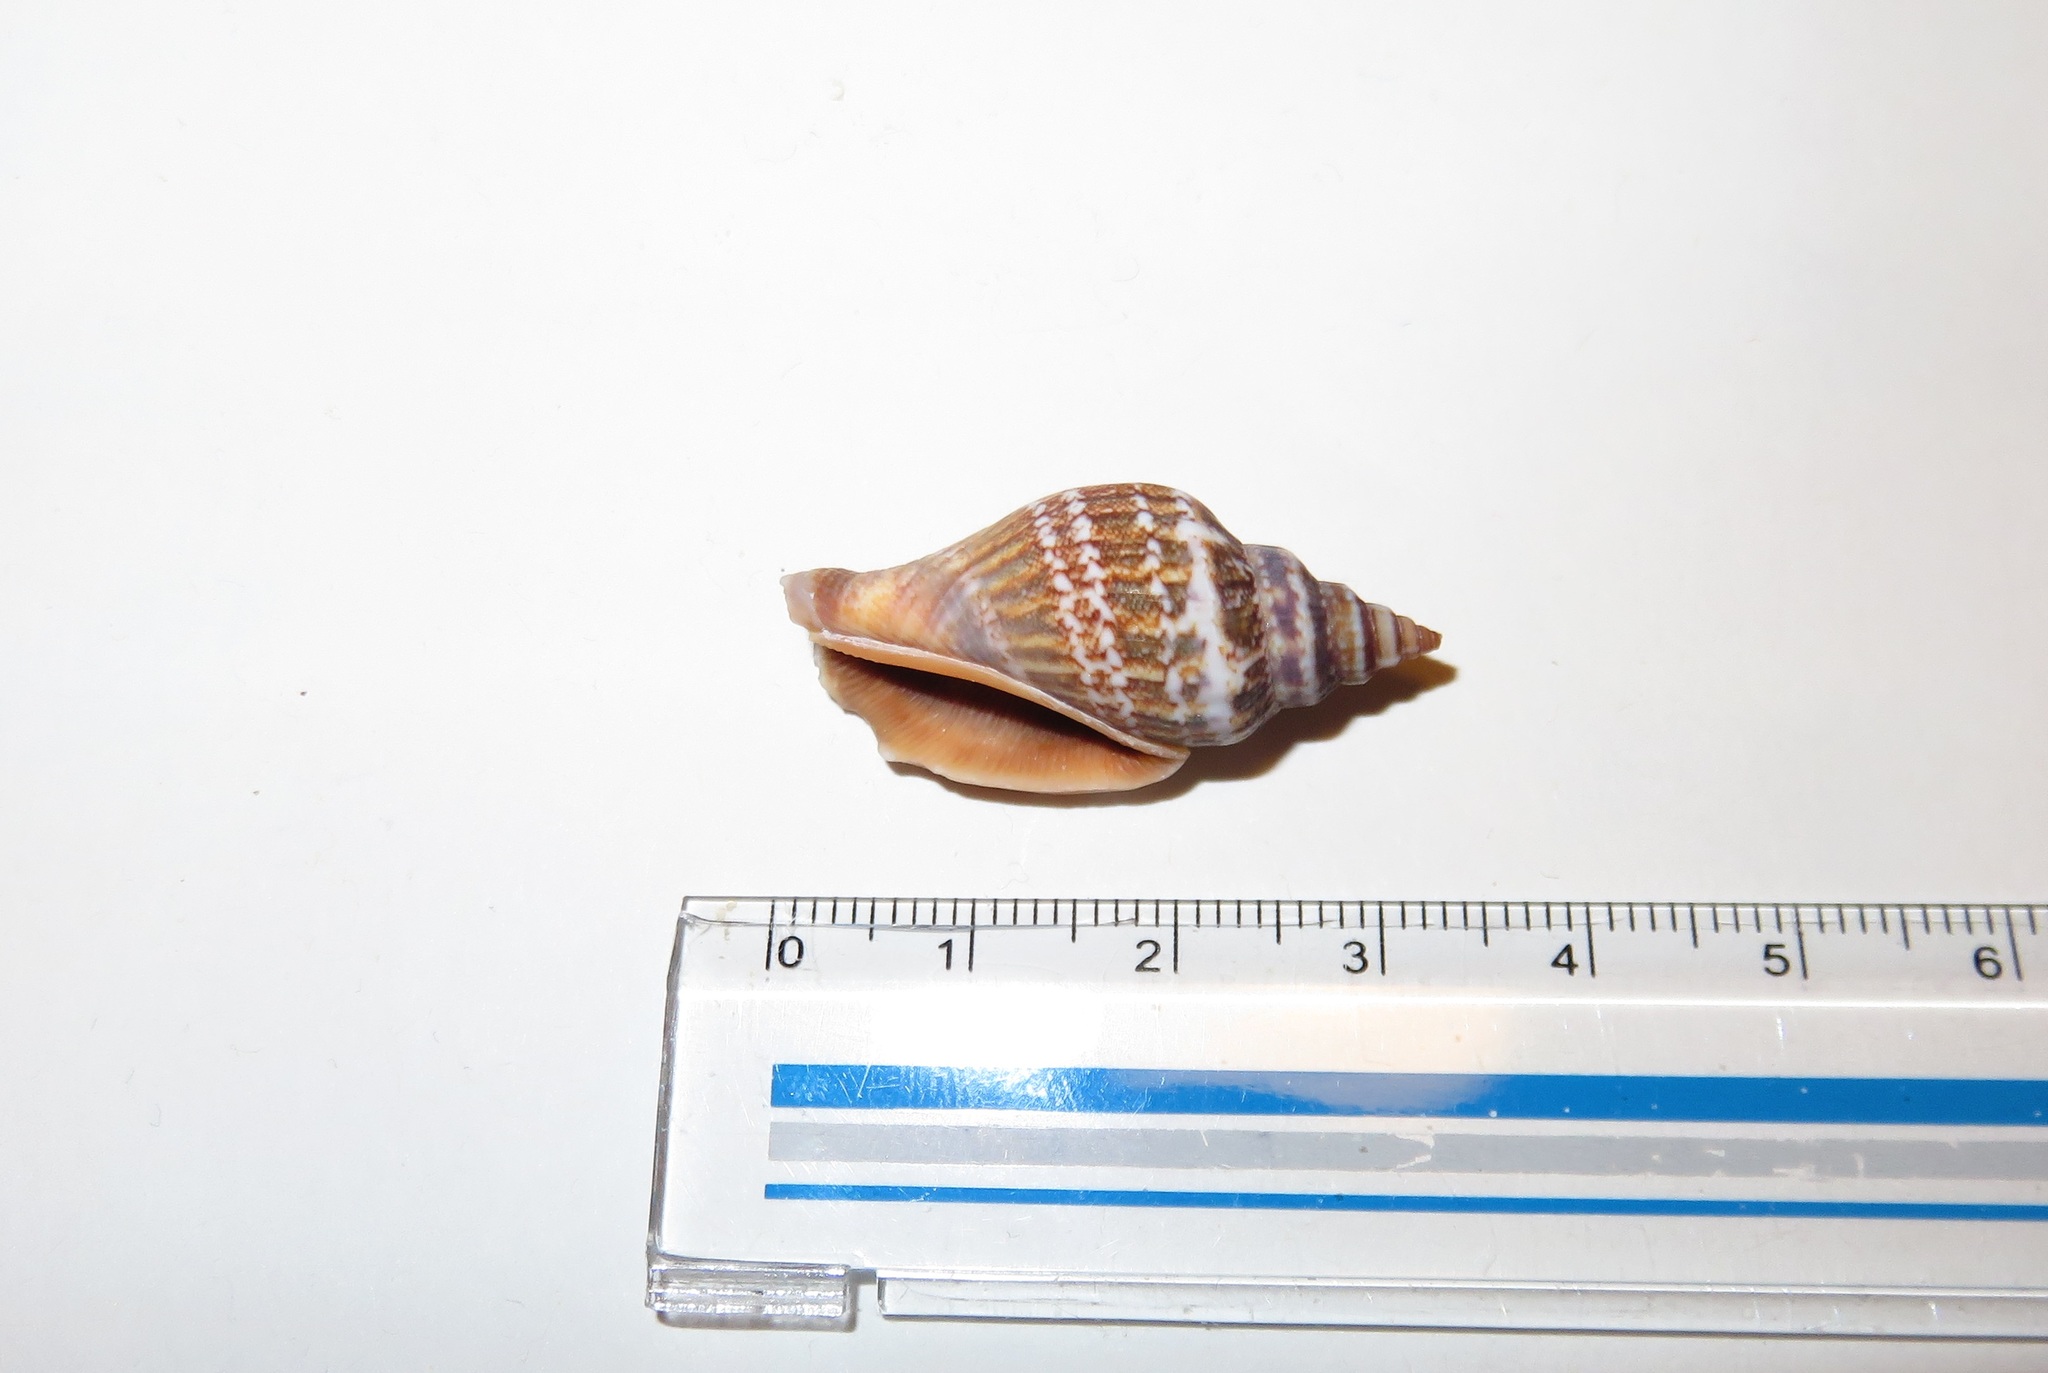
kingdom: Animalia
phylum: Mollusca
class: Gastropoda
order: Littorinimorpha
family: Strombidae
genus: Canarium
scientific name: Canarium urceus
